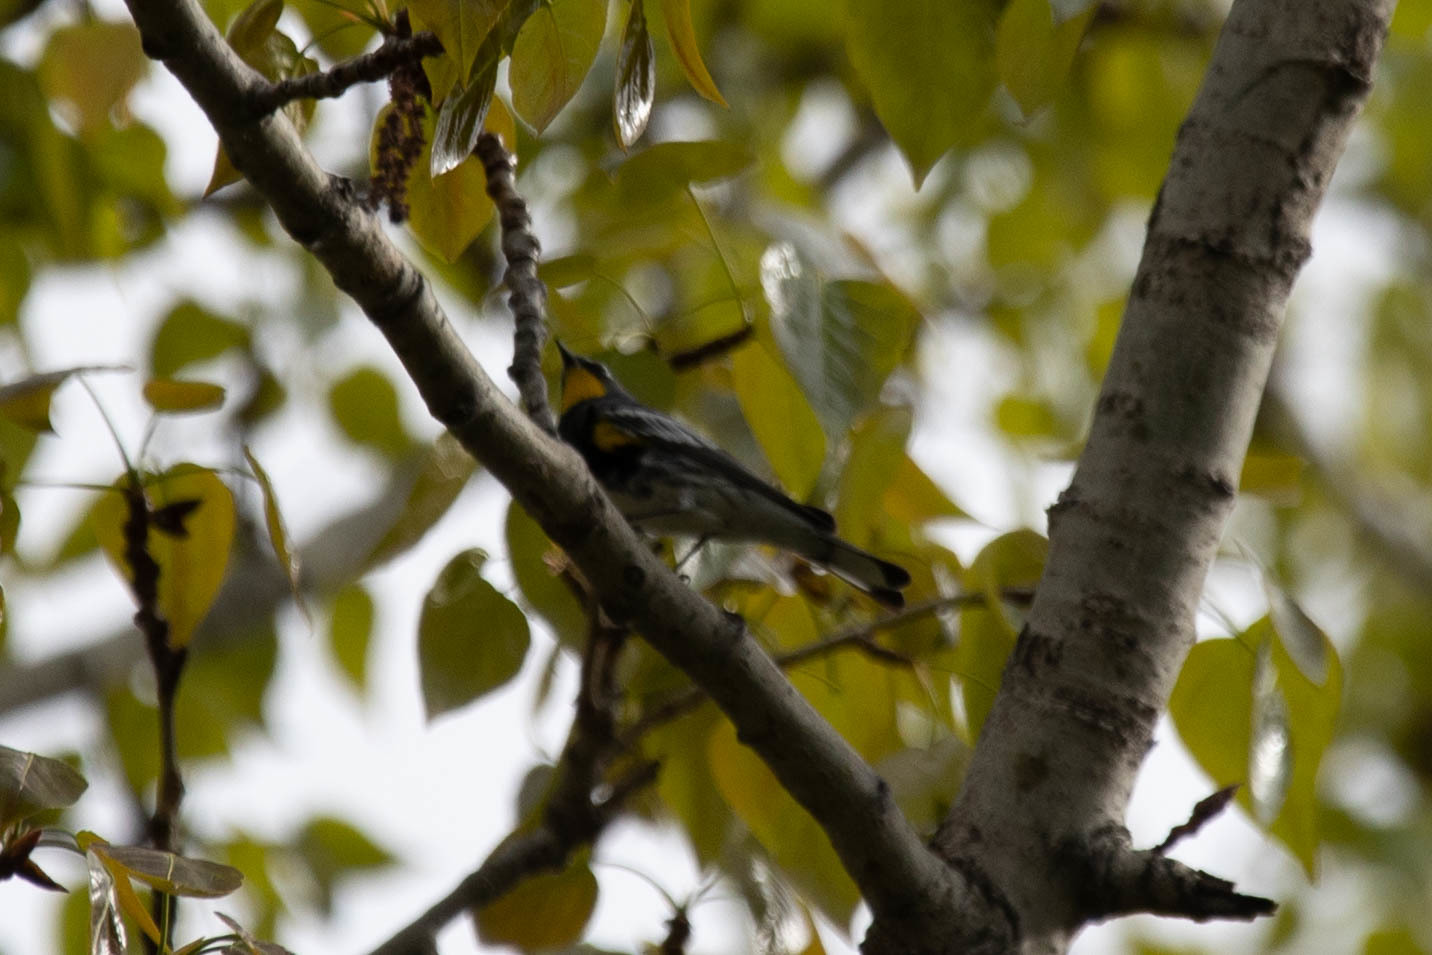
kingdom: Animalia
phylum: Chordata
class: Aves
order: Passeriformes
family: Parulidae
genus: Setophaga
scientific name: Setophaga auduboni
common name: Audubon's warbler
